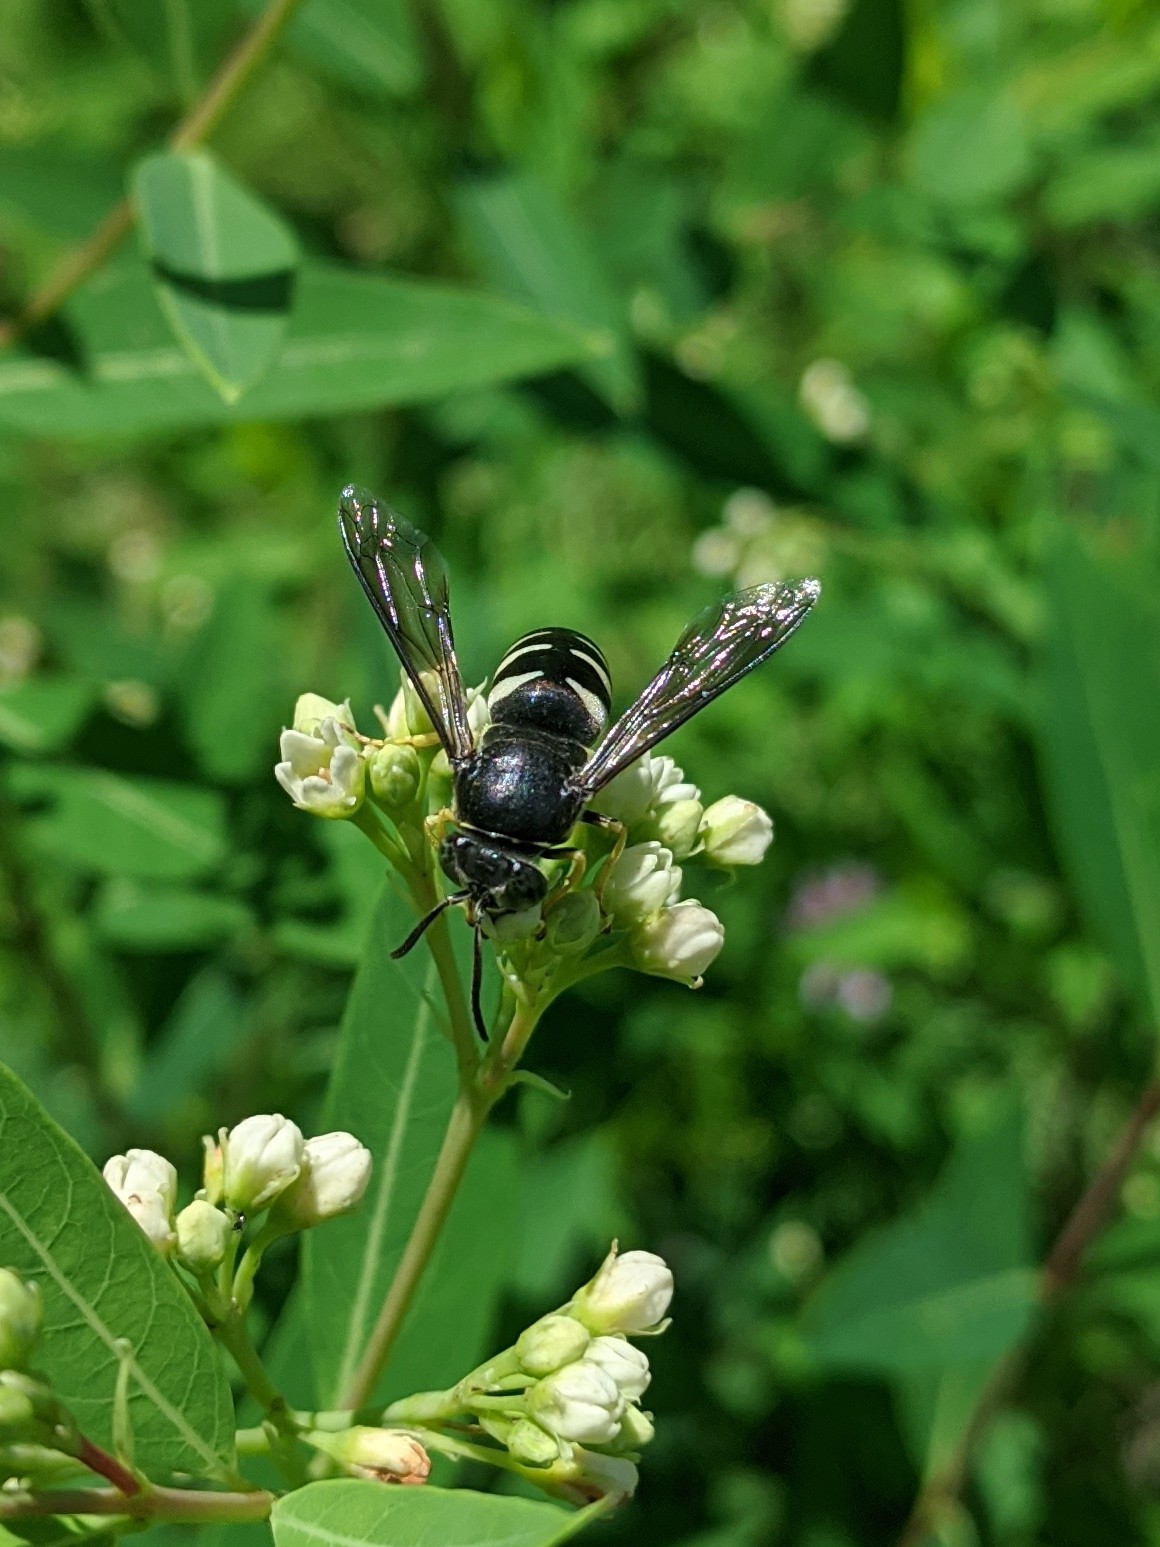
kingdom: Animalia
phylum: Arthropoda
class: Insecta
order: Hymenoptera
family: Crabronidae
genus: Bicyrtes
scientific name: Bicyrtes quadrifasciatus
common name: Four-banded stink bug hunter wasp
